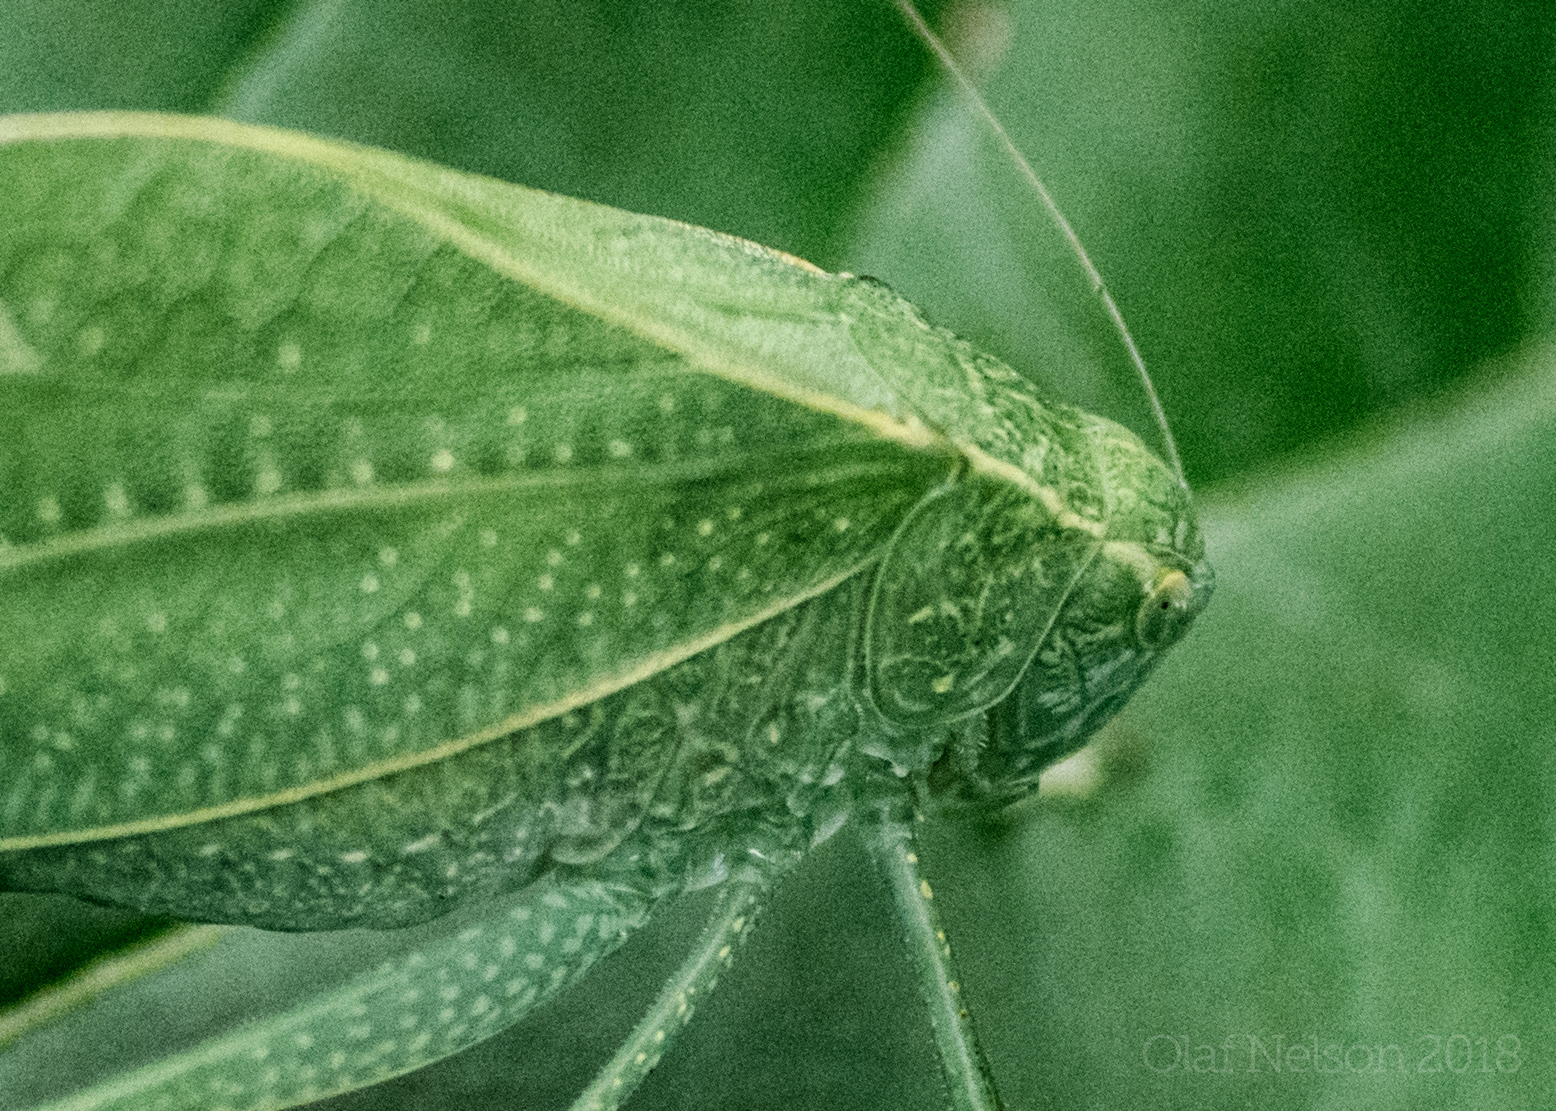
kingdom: Animalia
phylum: Arthropoda
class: Insecta
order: Orthoptera
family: Tettigoniidae
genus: Microcentrum
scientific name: Microcentrum rhombifolium
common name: Broad-winged katydid
